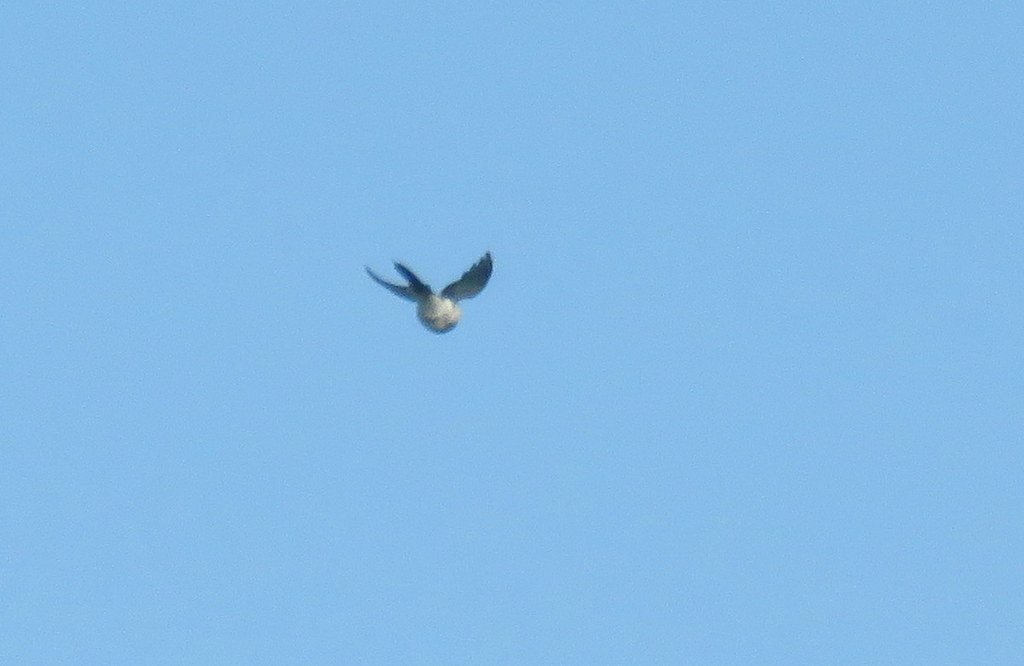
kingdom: Animalia
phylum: Chordata
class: Aves
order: Passeriformes
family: Tyrannidae
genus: Tyrannus
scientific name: Tyrannus savana
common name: Fork-tailed flycatcher
